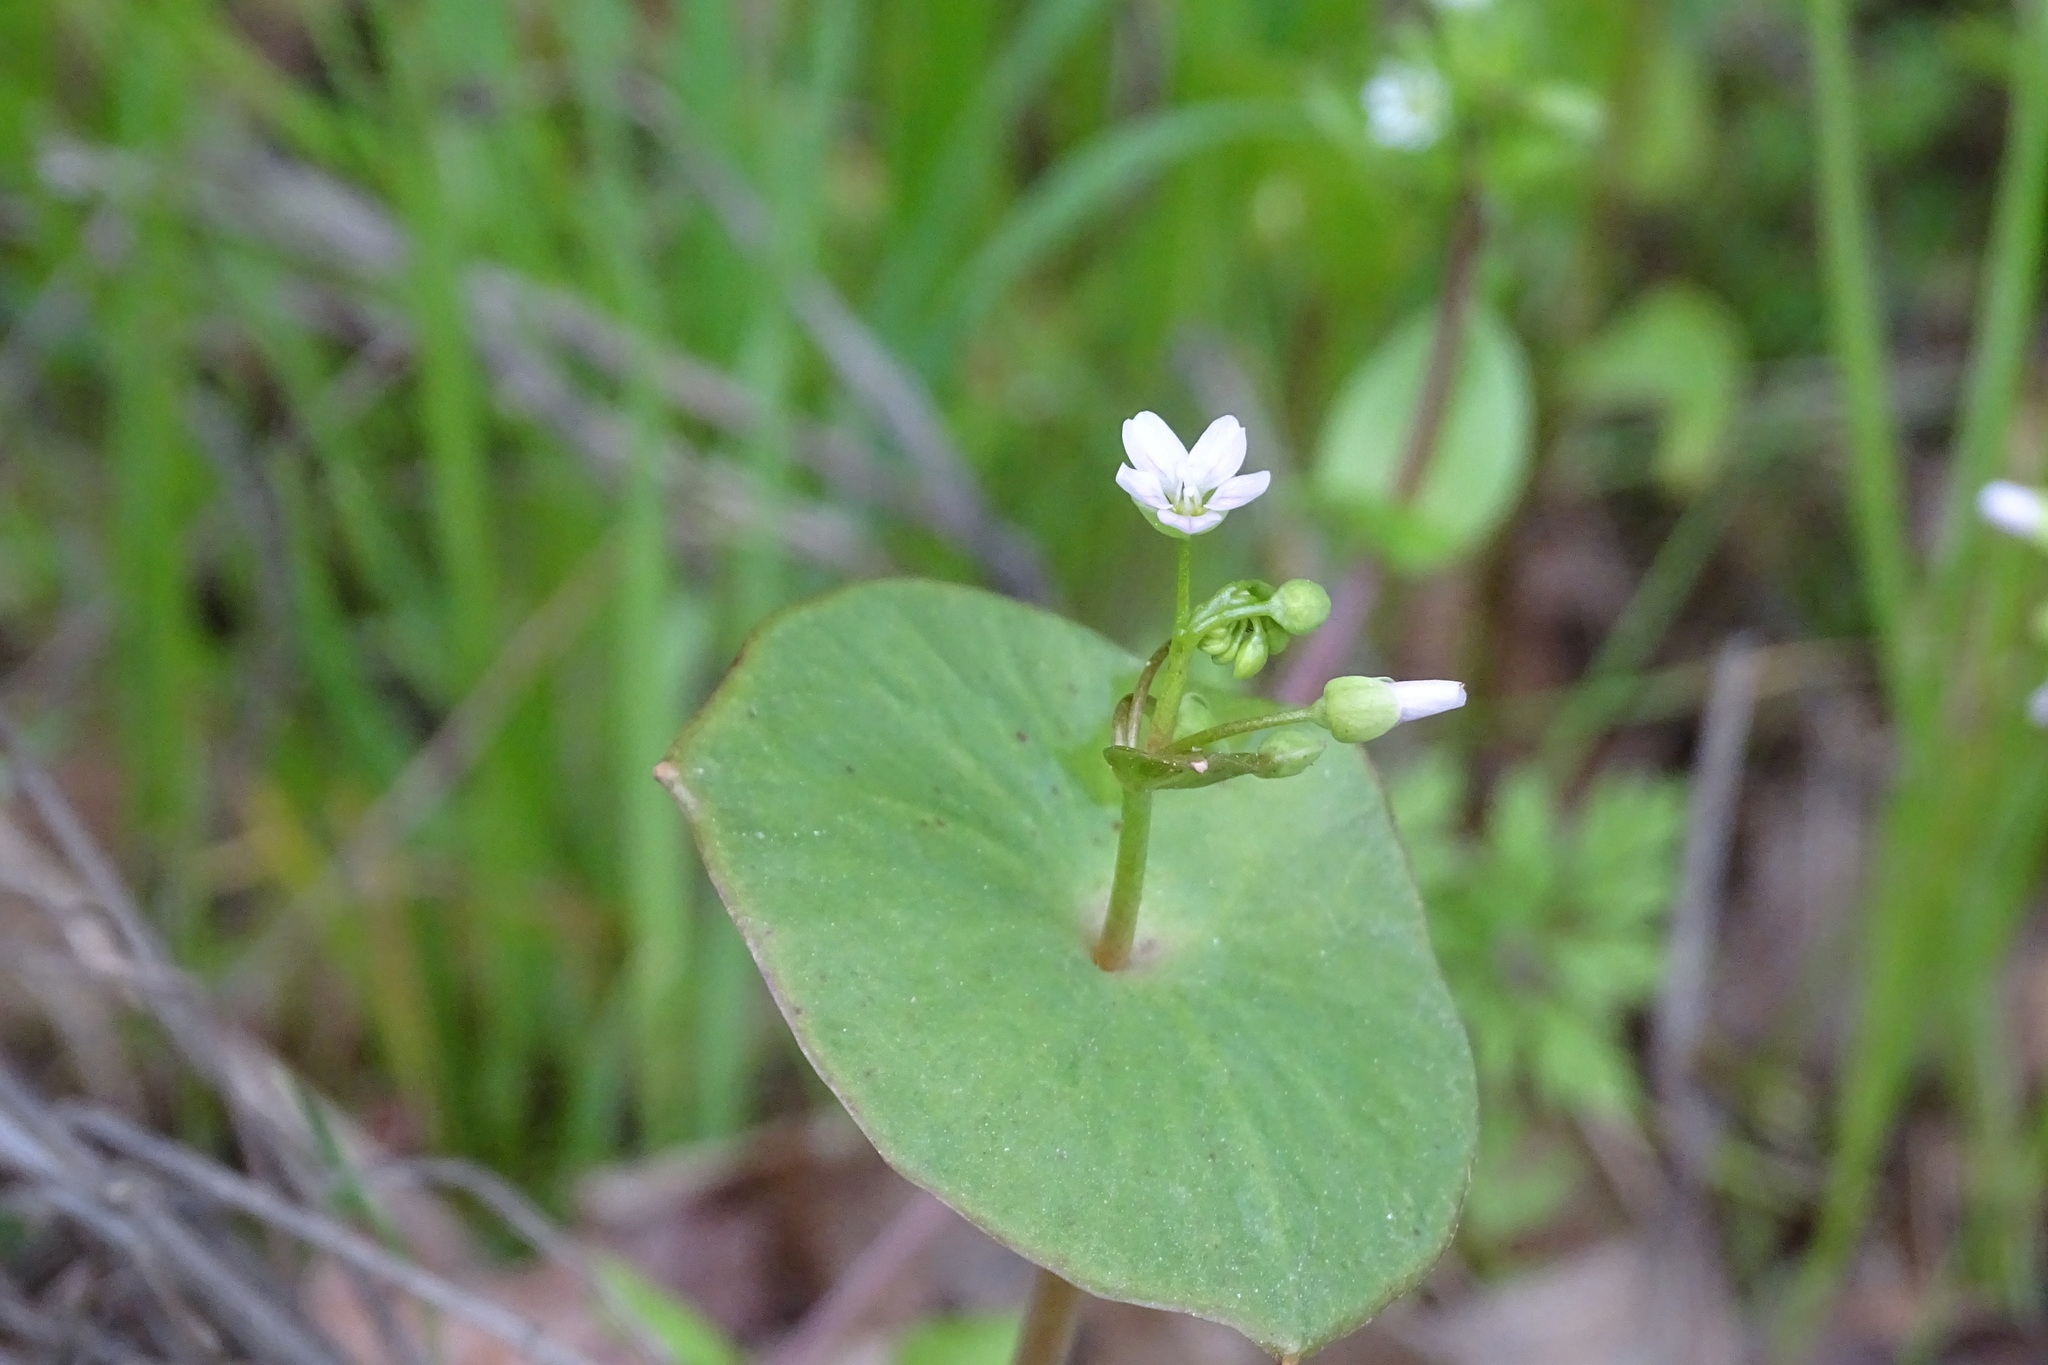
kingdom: Plantae
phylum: Tracheophyta
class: Magnoliopsida
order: Caryophyllales
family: Montiaceae
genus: Claytonia
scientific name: Claytonia perfoliata
